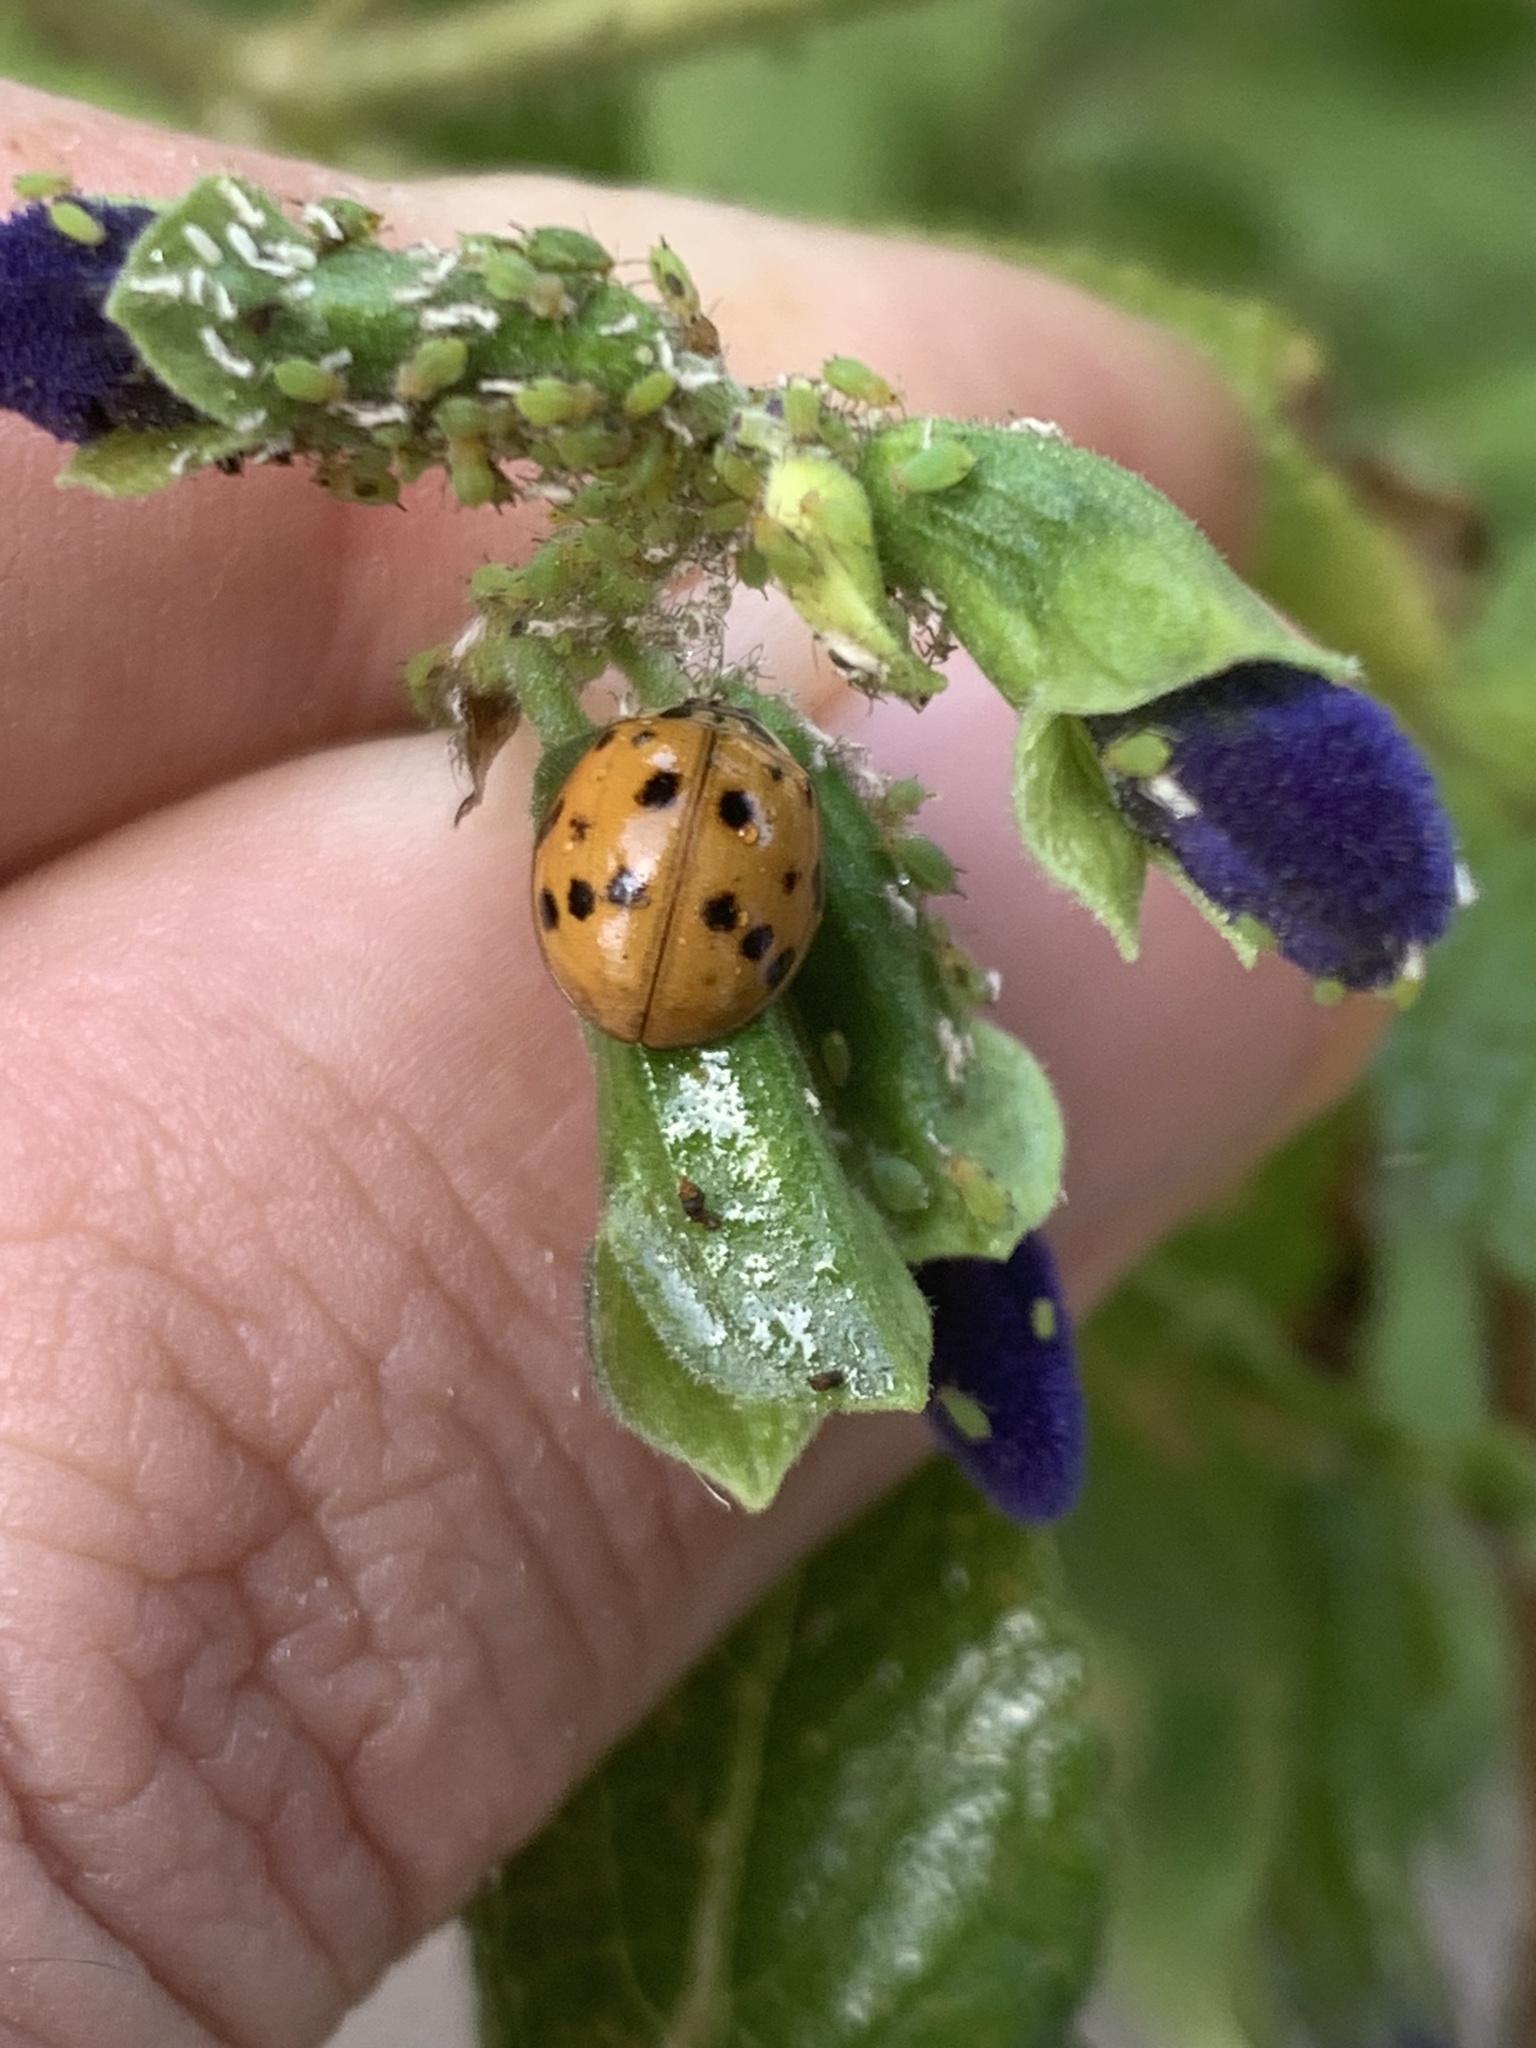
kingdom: Animalia
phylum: Arthropoda
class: Insecta
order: Coleoptera
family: Coccinellidae
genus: Harmonia
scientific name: Harmonia axyridis
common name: Harlequin ladybird
